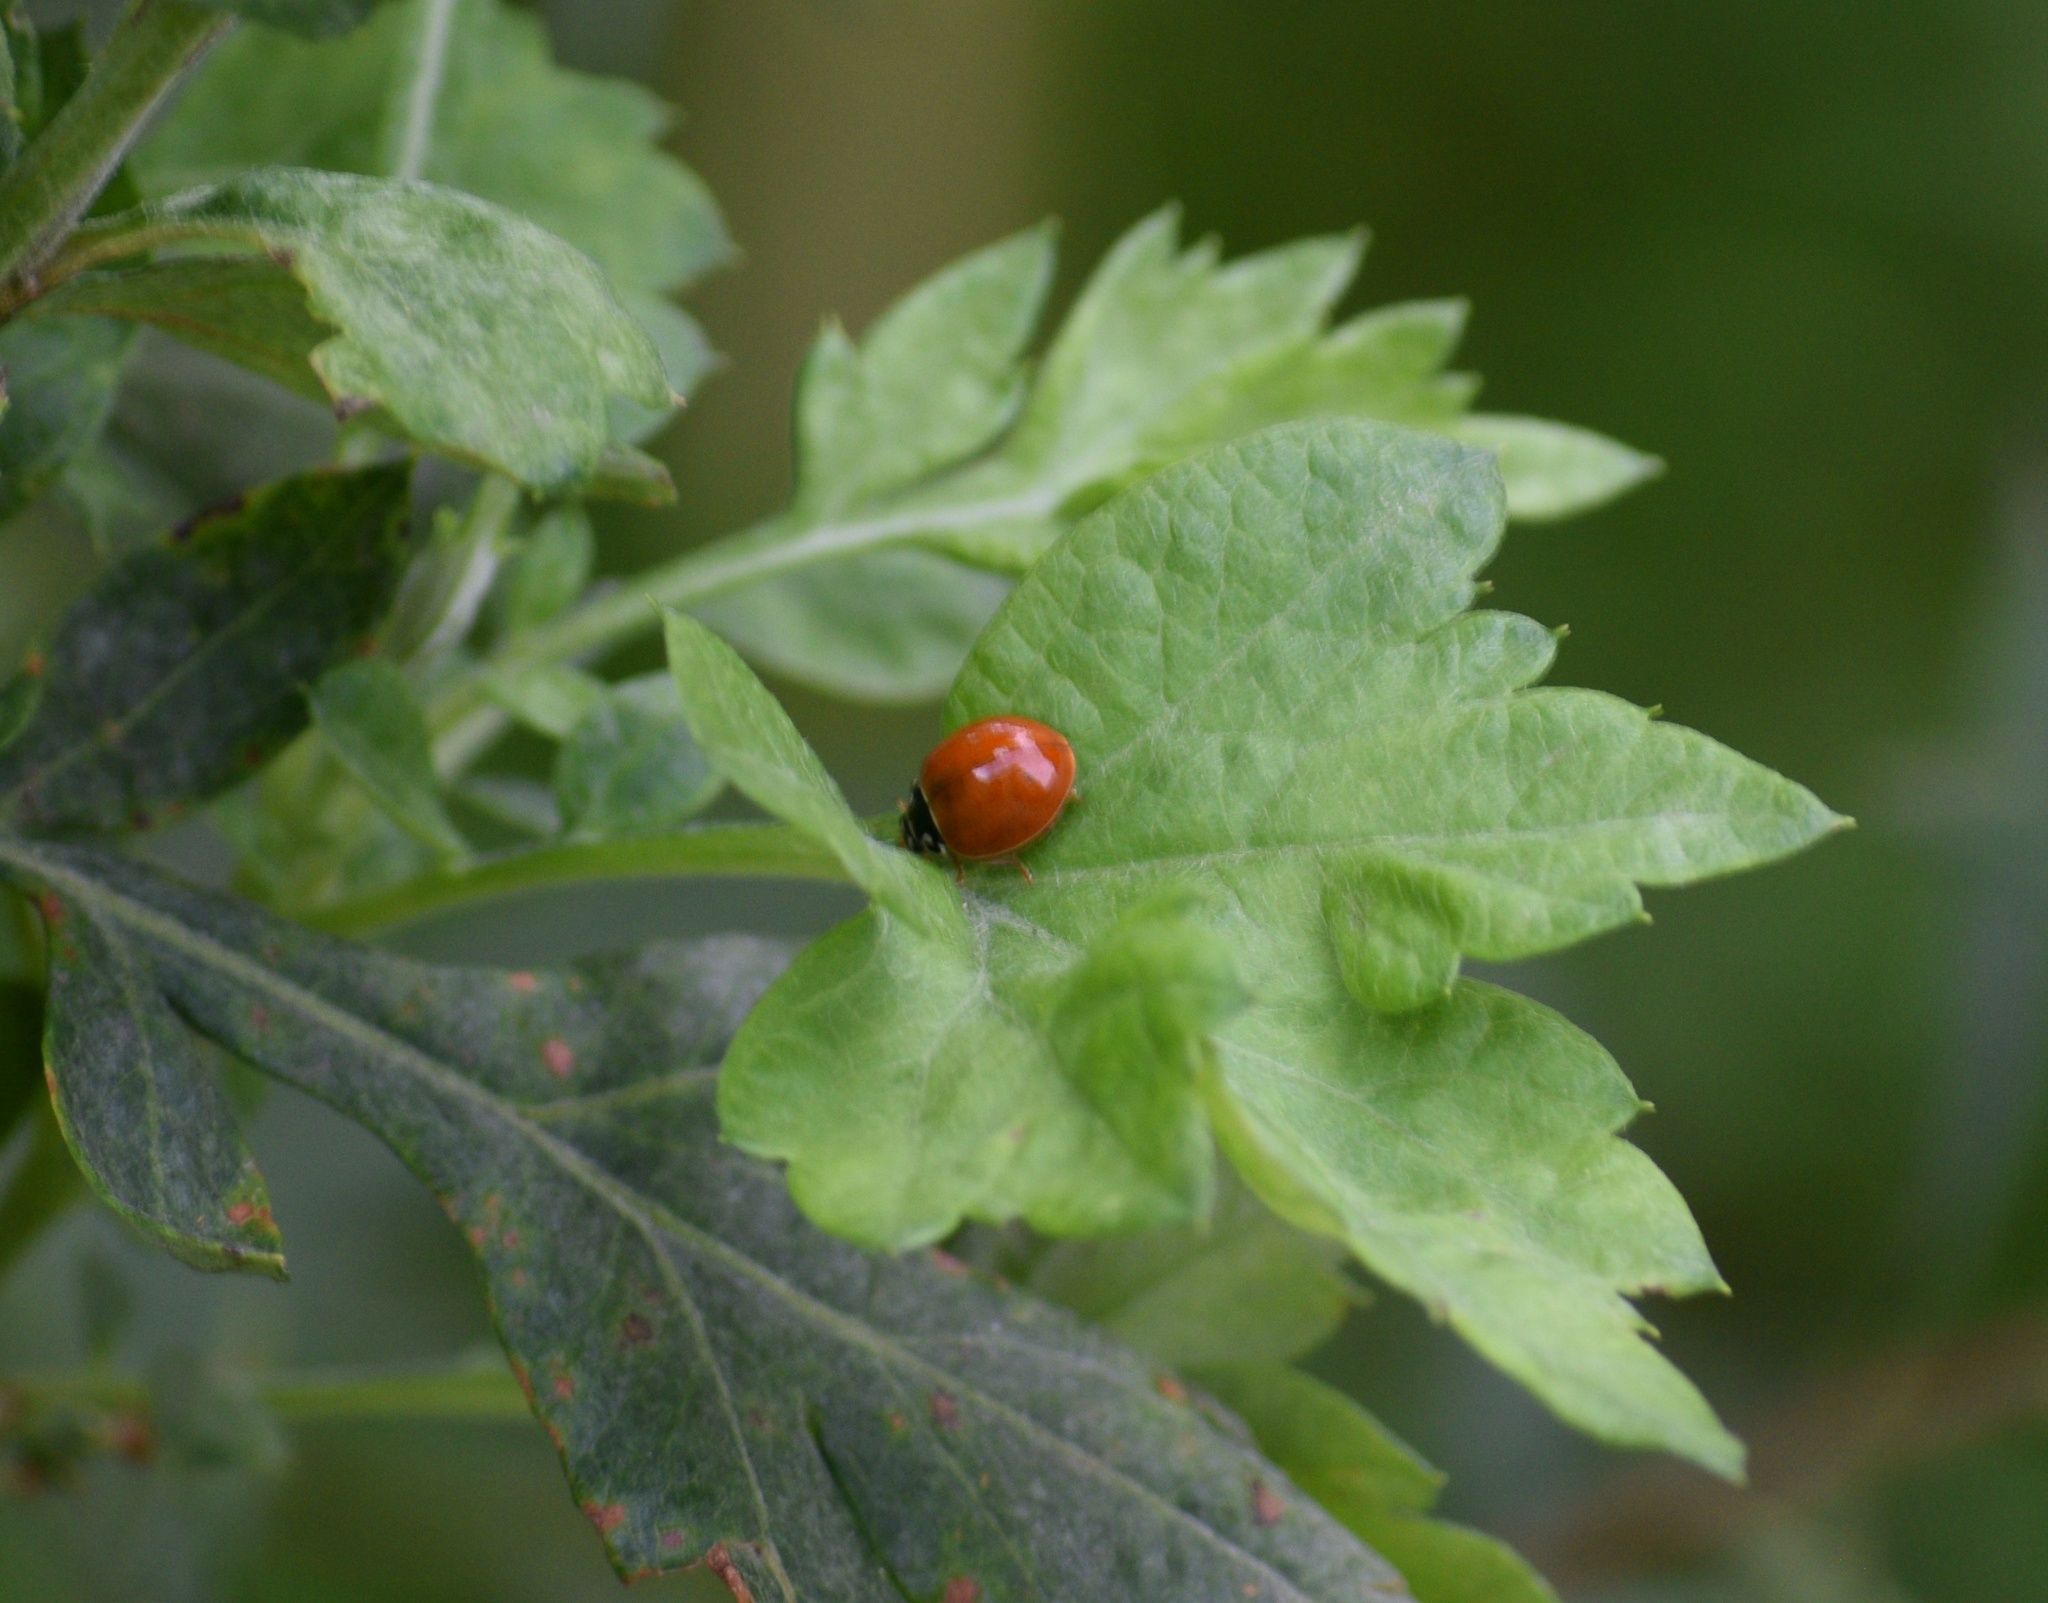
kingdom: Animalia
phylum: Arthropoda
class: Insecta
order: Coleoptera
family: Coccinellidae
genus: Cycloneda
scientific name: Cycloneda munda
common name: Polished lady beetle
